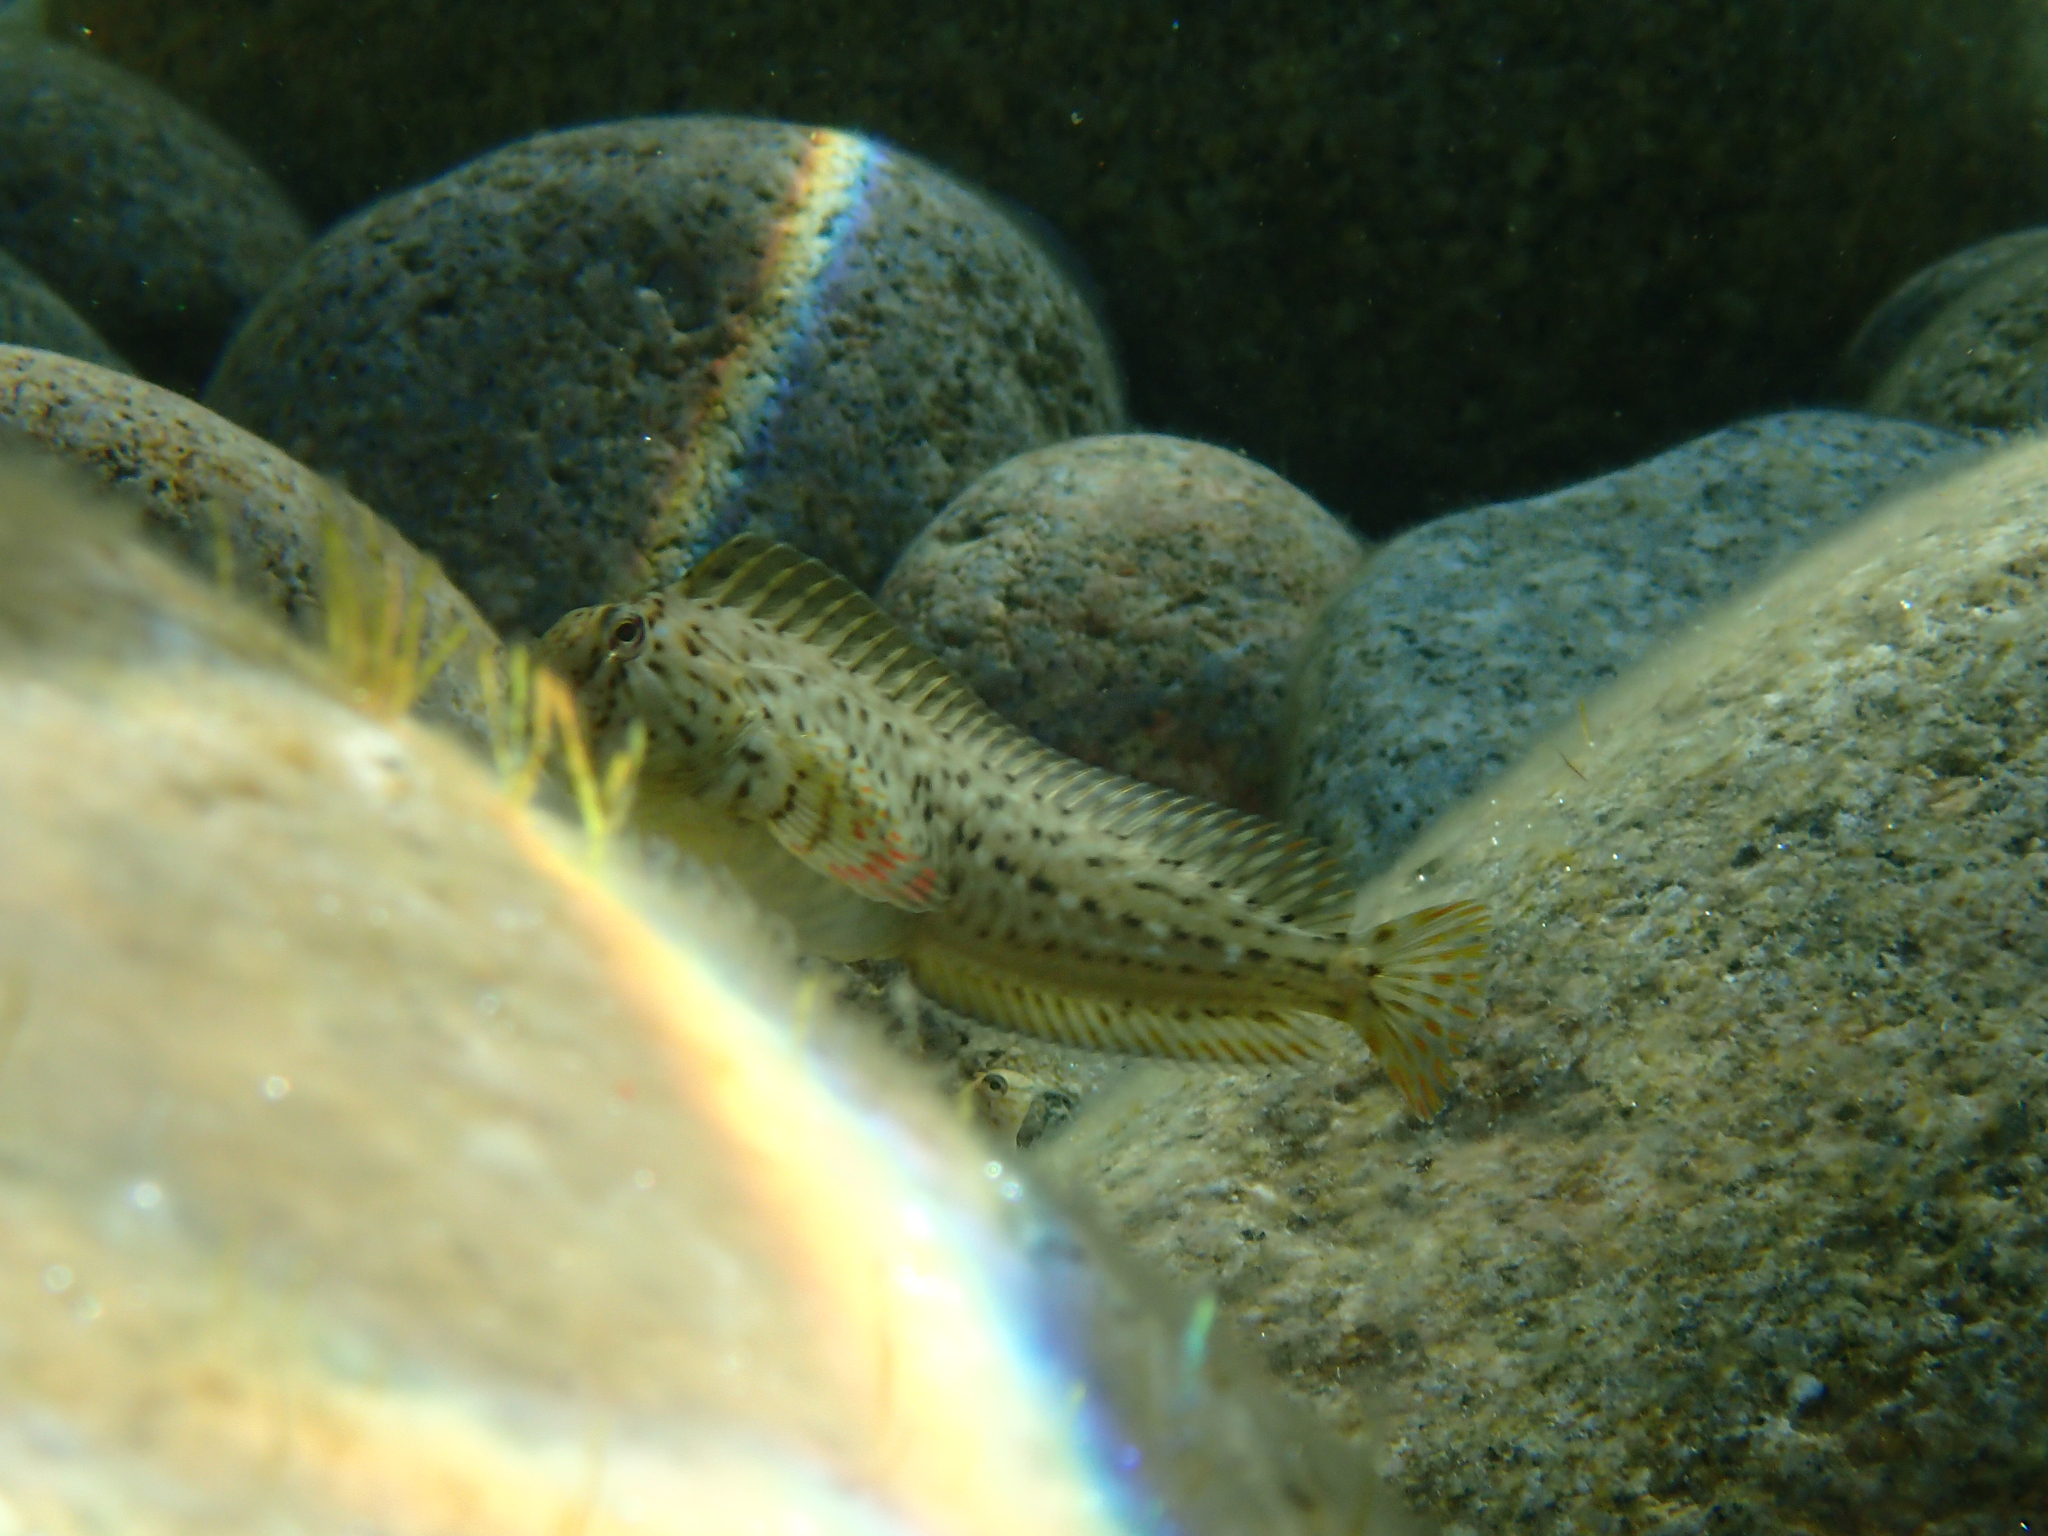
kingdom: Animalia
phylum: Chordata
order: Perciformes
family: Blenniidae
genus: Parablennius
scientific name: Parablennius sanguinolentus
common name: Black sea blenny
